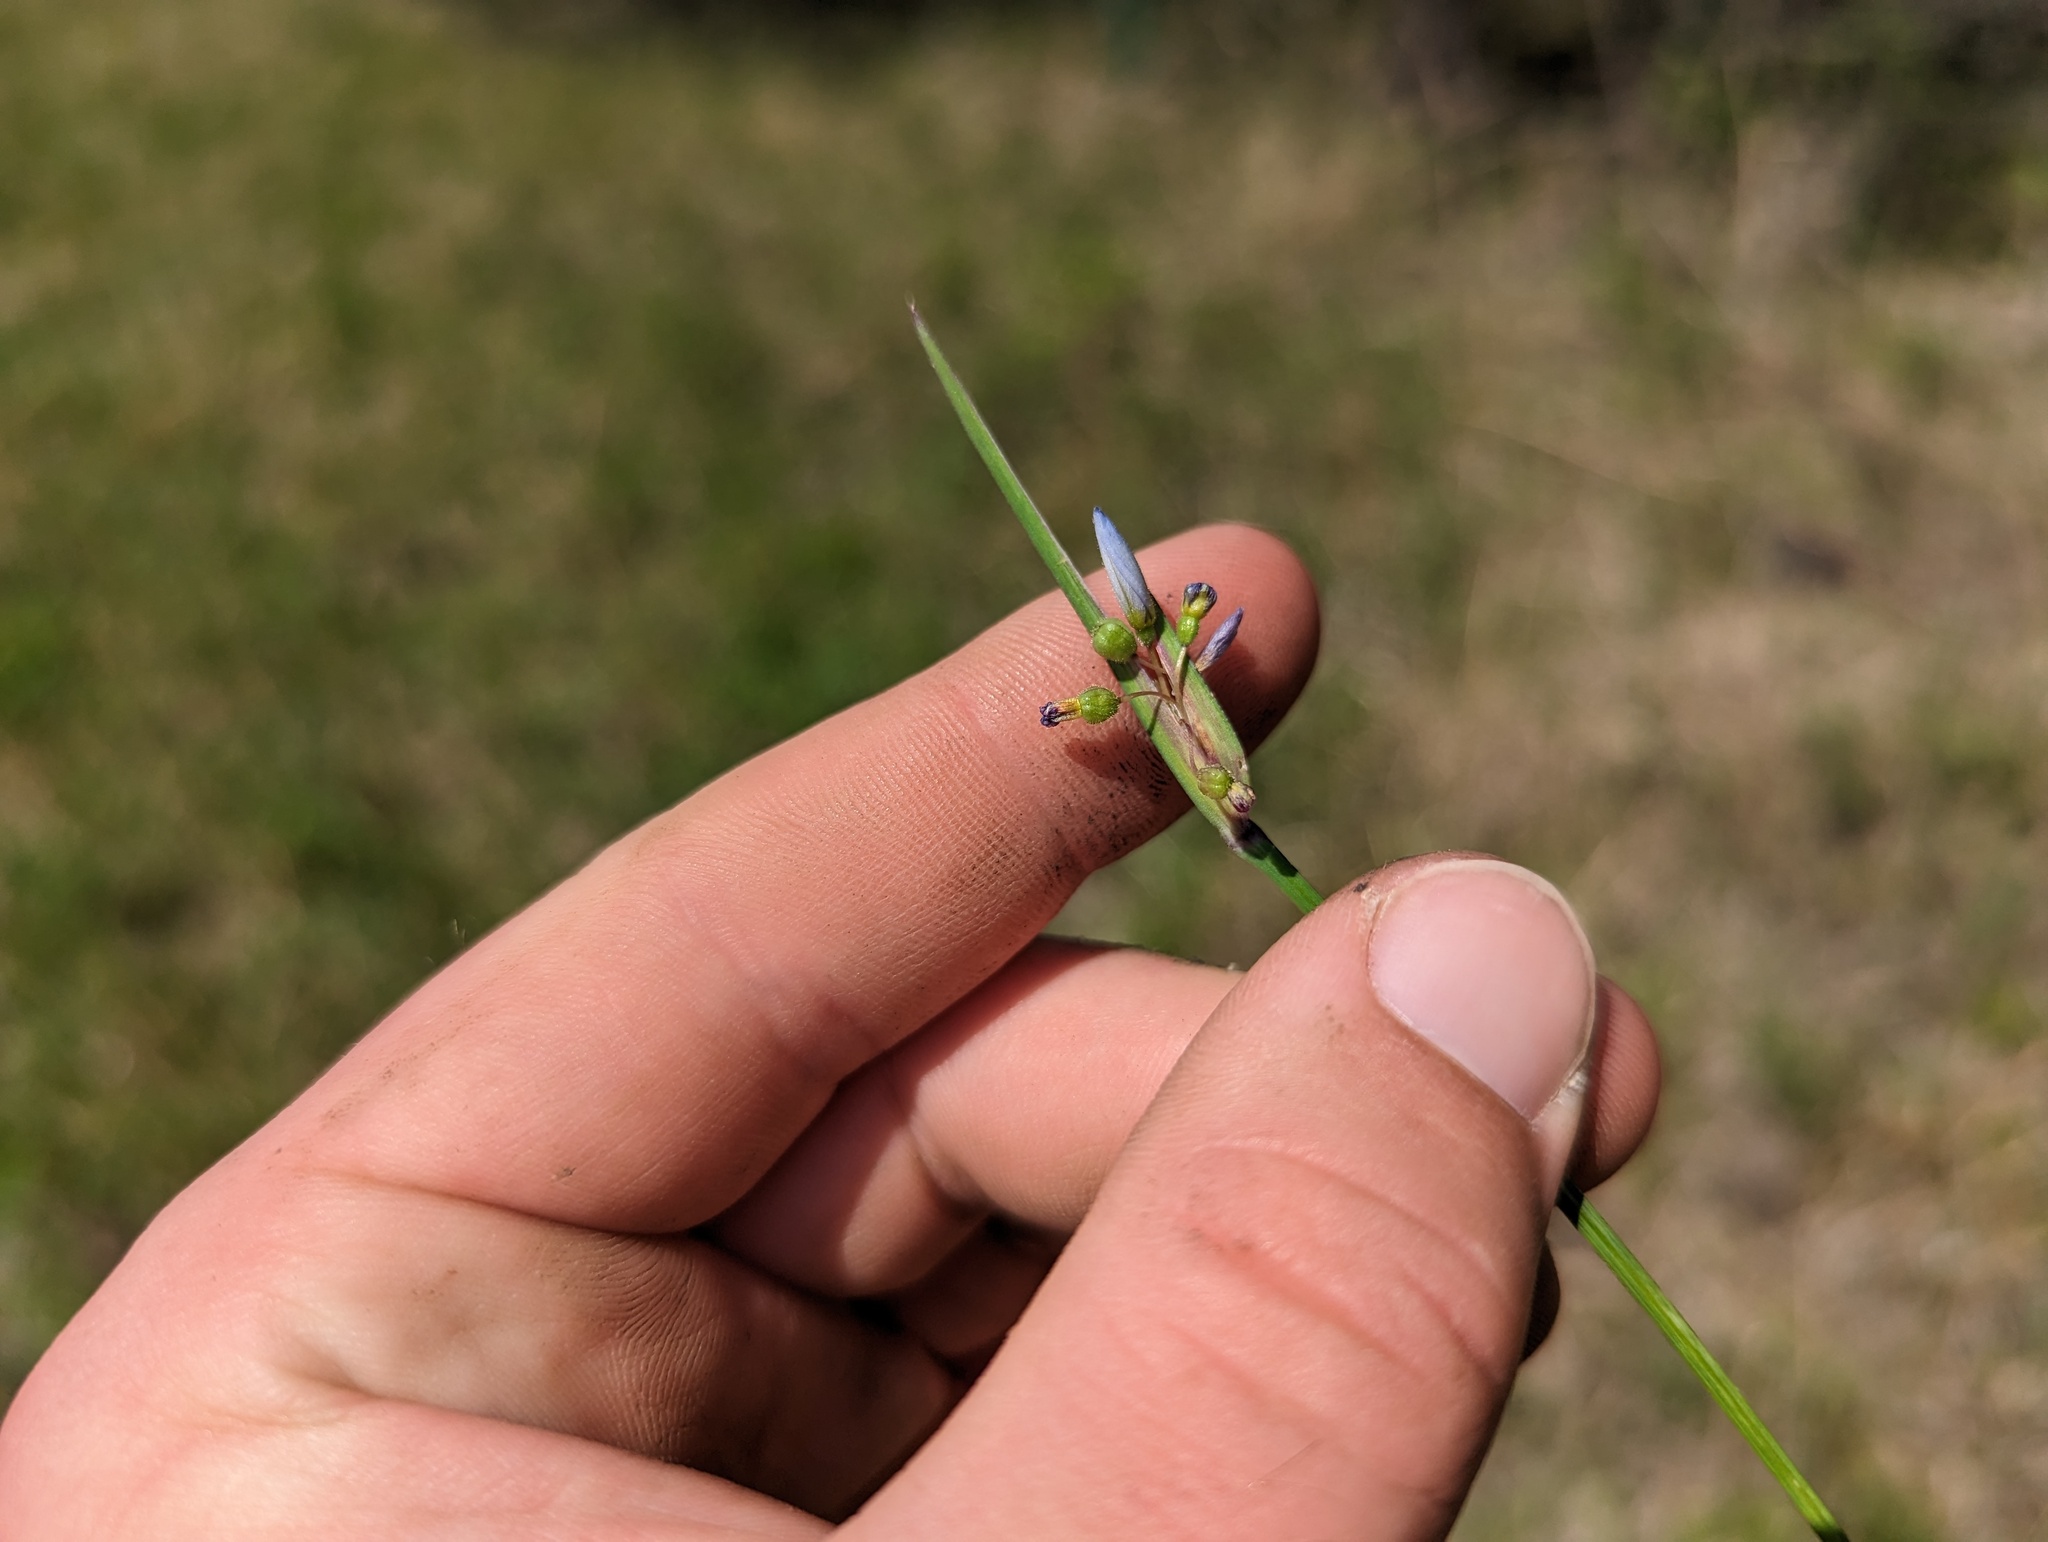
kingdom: Plantae
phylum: Tracheophyta
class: Liliopsida
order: Asparagales
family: Iridaceae
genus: Sisyrinchium
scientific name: Sisyrinchium campestre
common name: Prairie blue-eyed-grass
